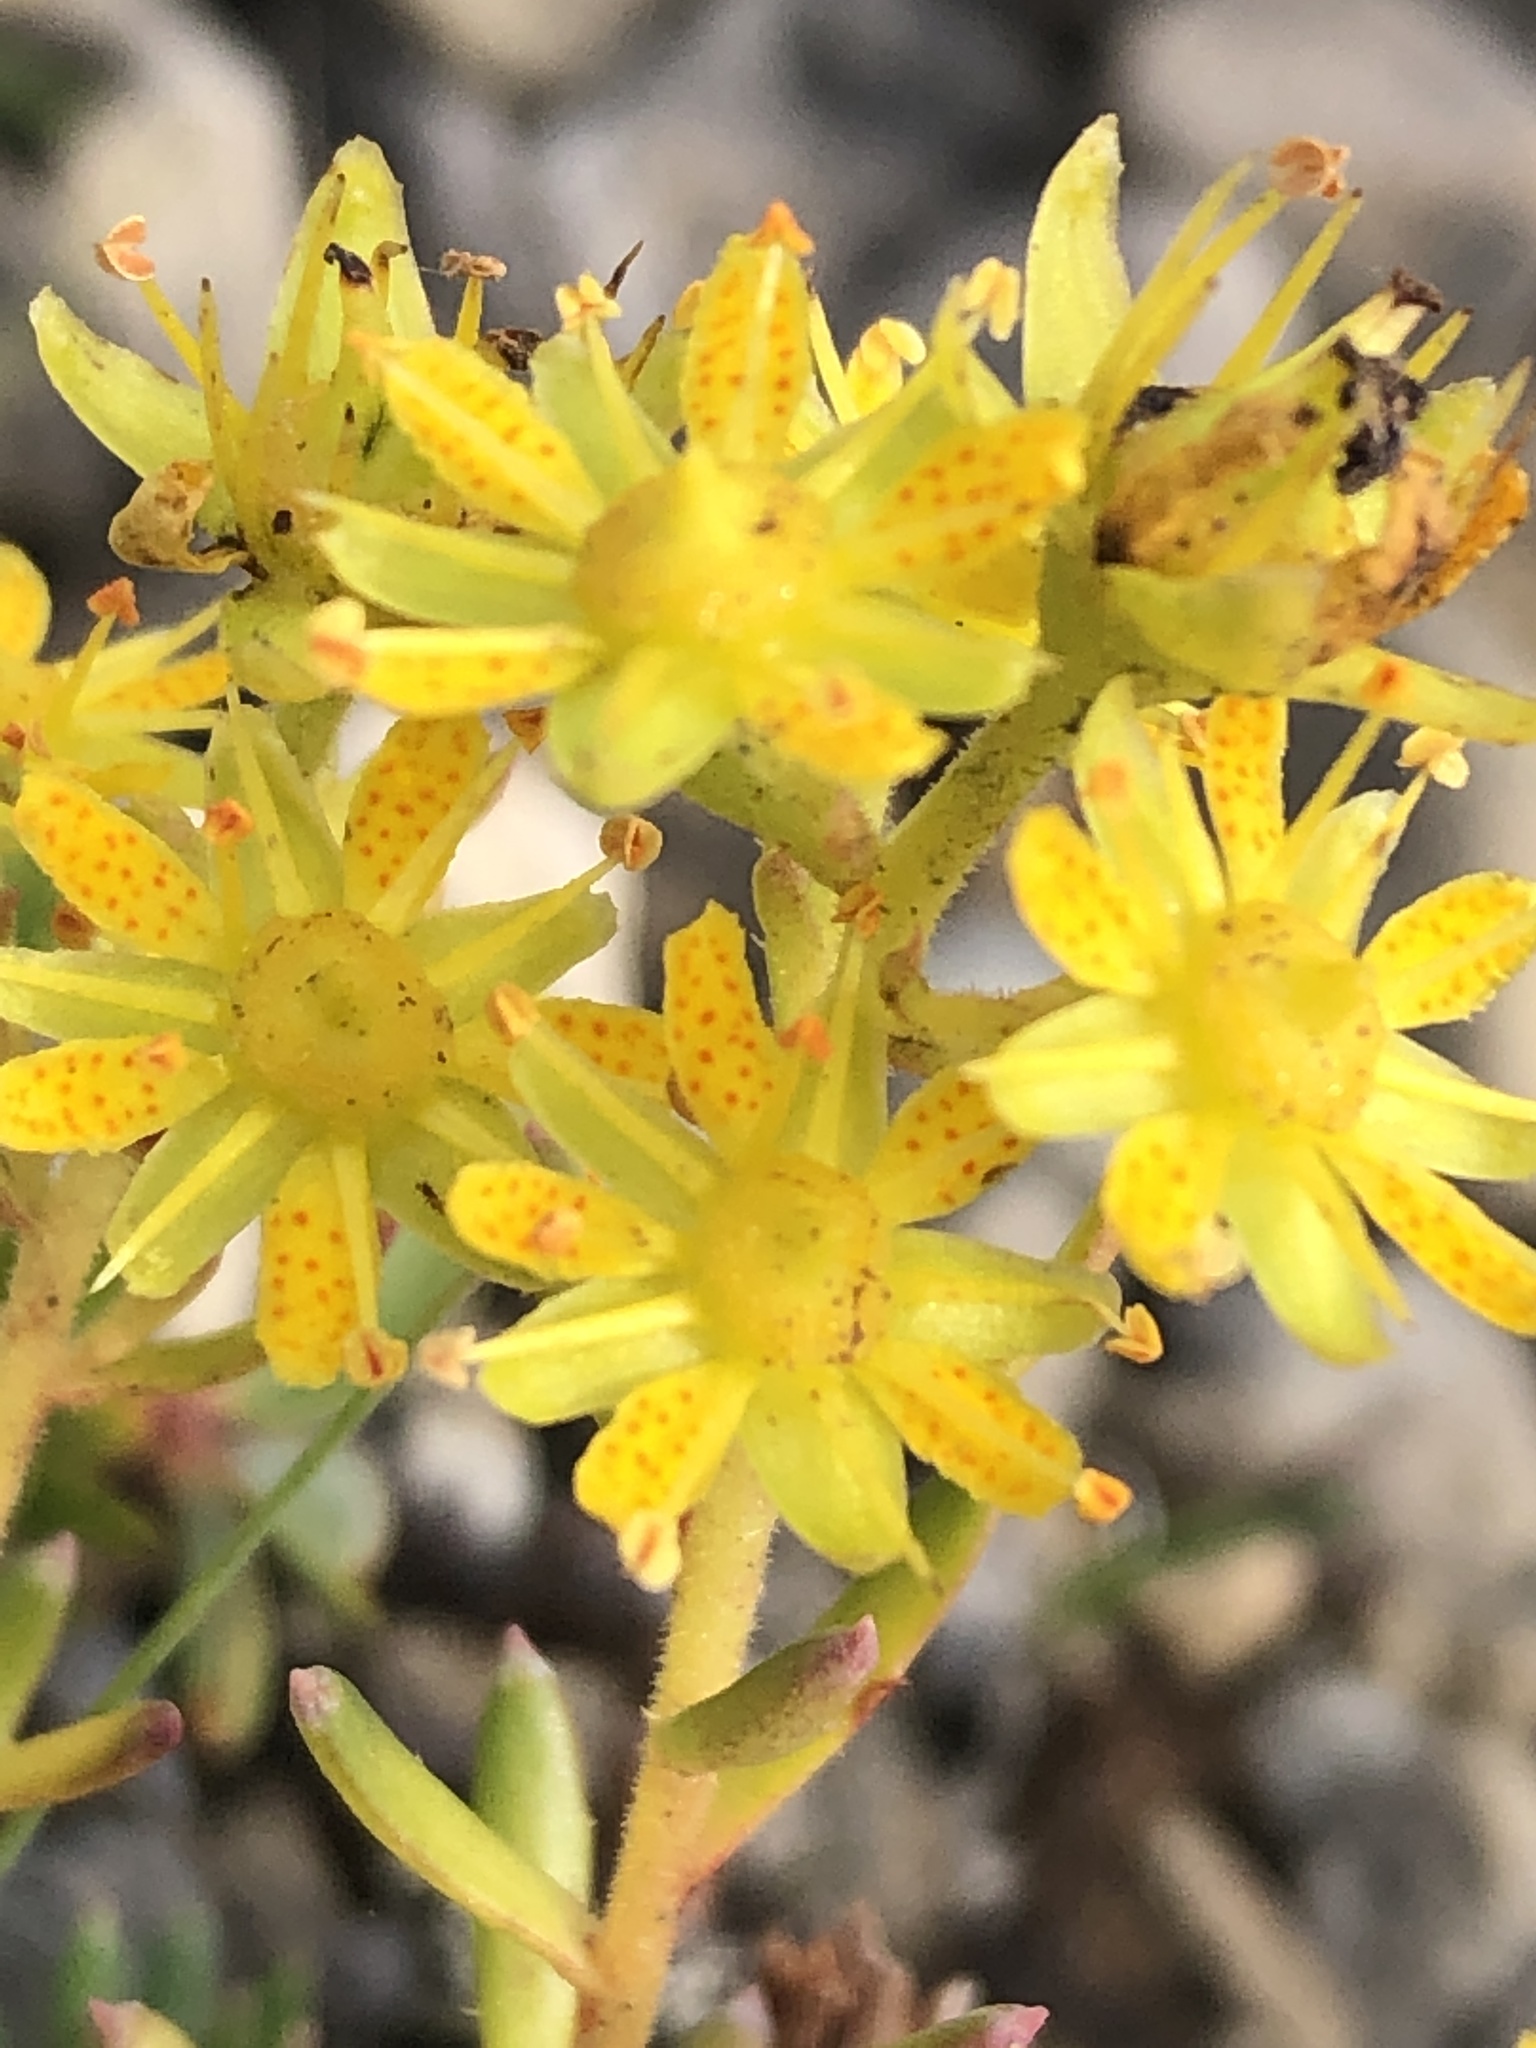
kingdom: Plantae
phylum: Tracheophyta
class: Magnoliopsida
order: Saxifragales
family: Saxifragaceae
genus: Saxifraga
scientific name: Saxifraga aizoides
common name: Yellow mountain saxifrage
